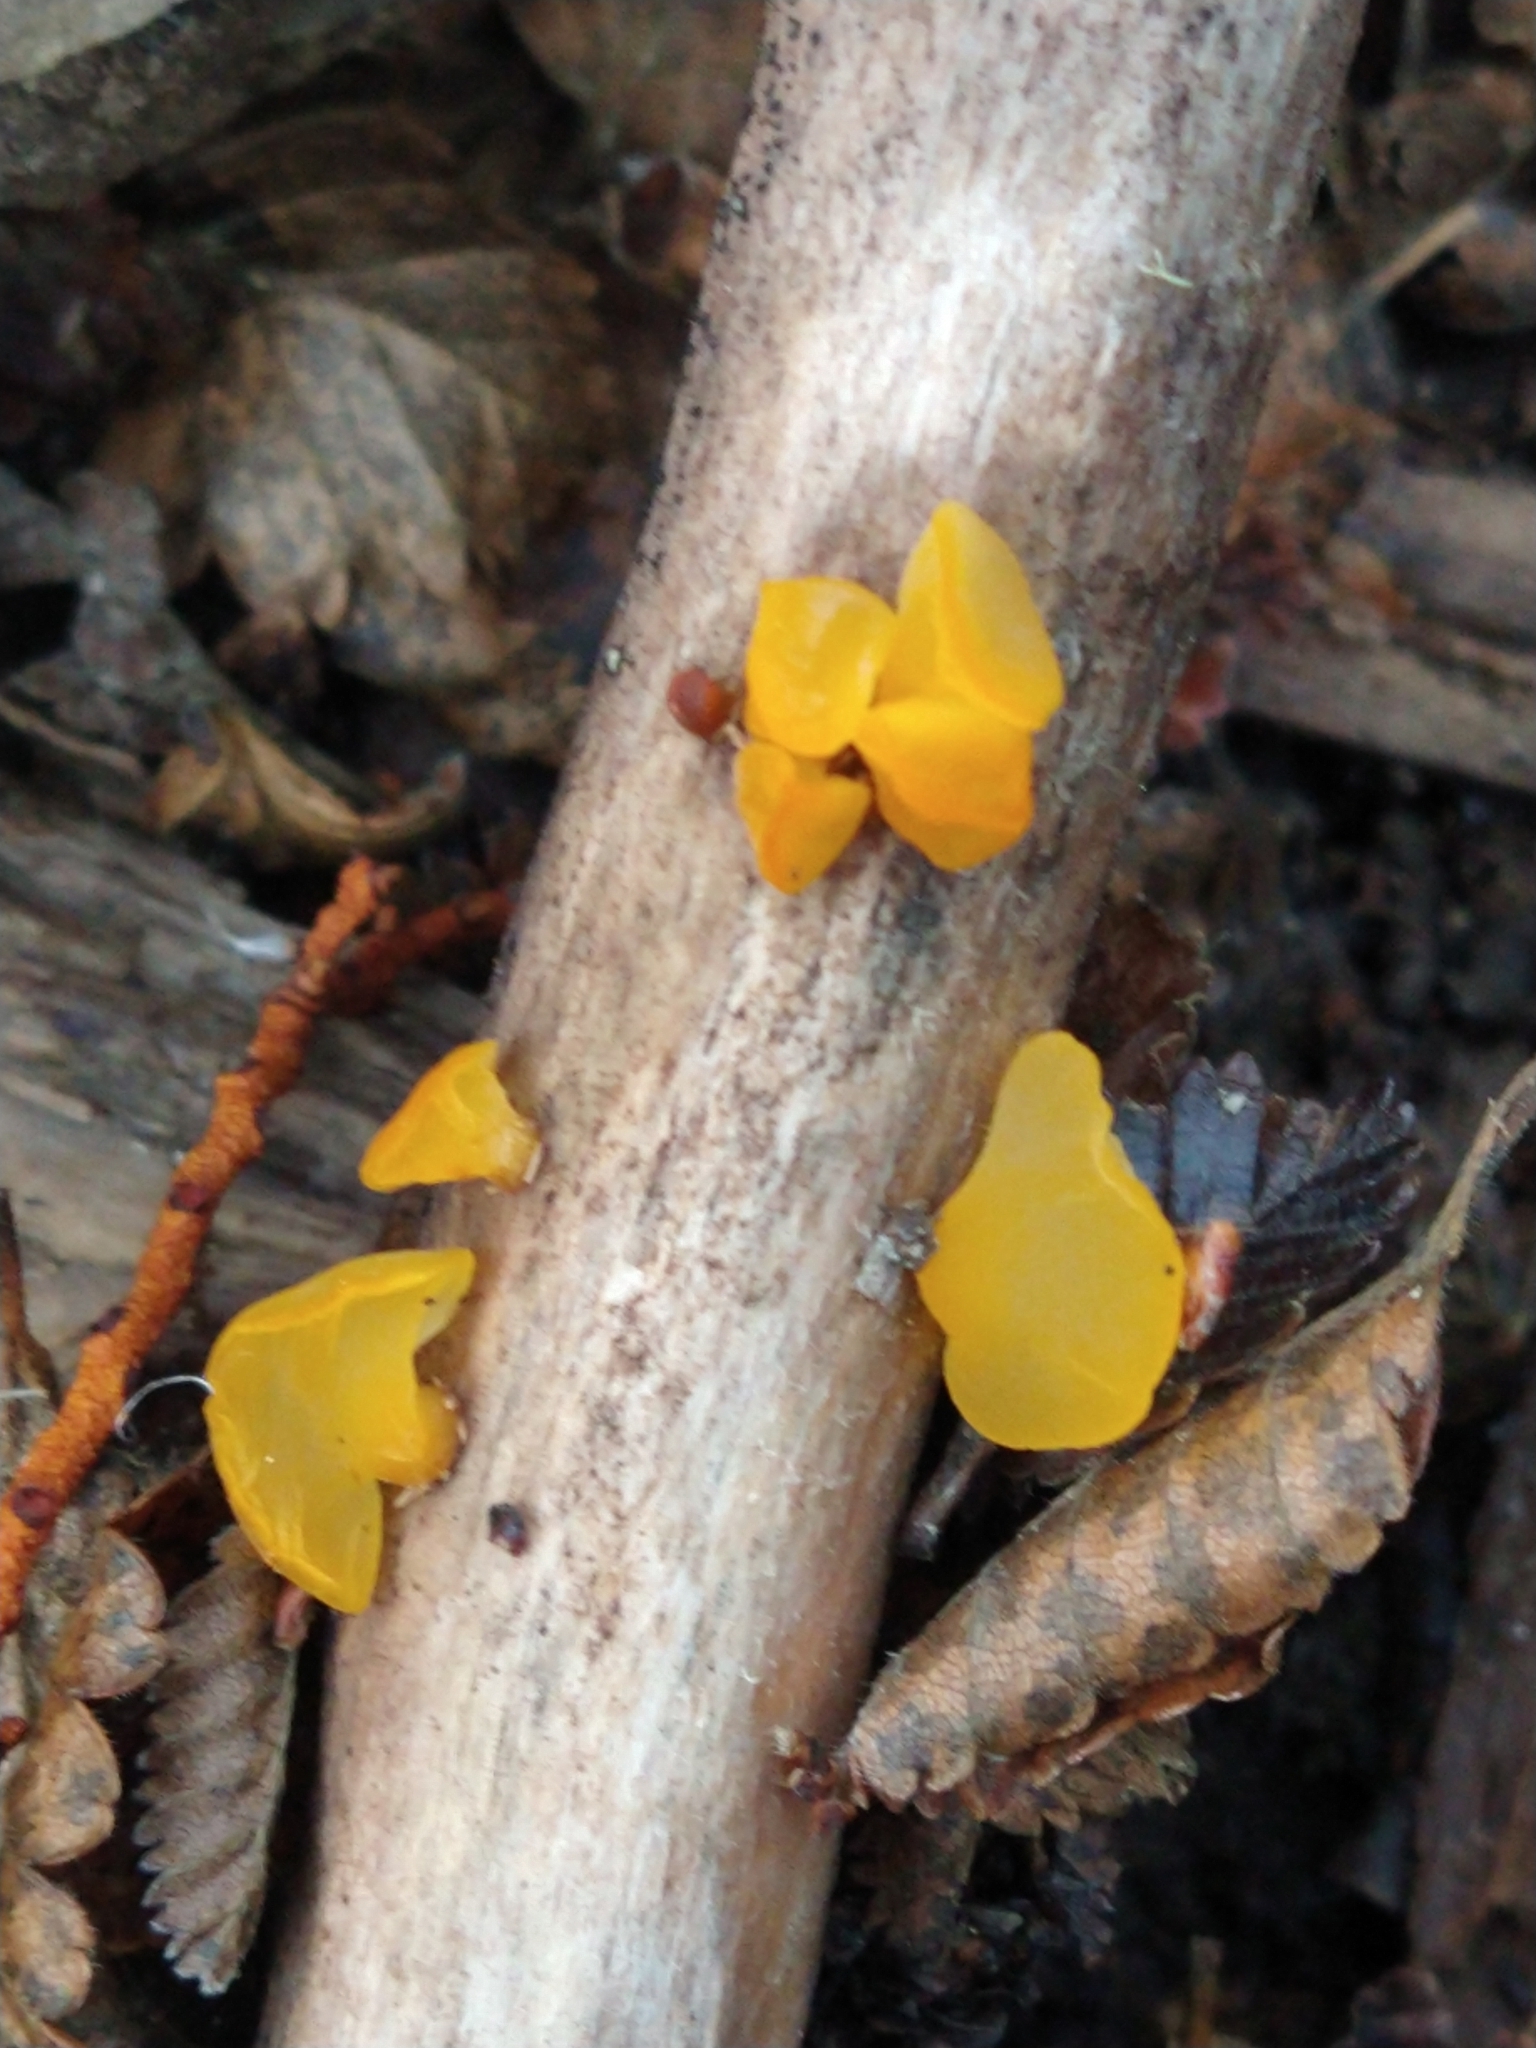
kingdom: Fungi
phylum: Basidiomycota
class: Dacrymycetes
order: Dacrymycetales
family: Dacrymycetaceae
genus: Guepiniopsis
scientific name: Guepiniopsis alpina
